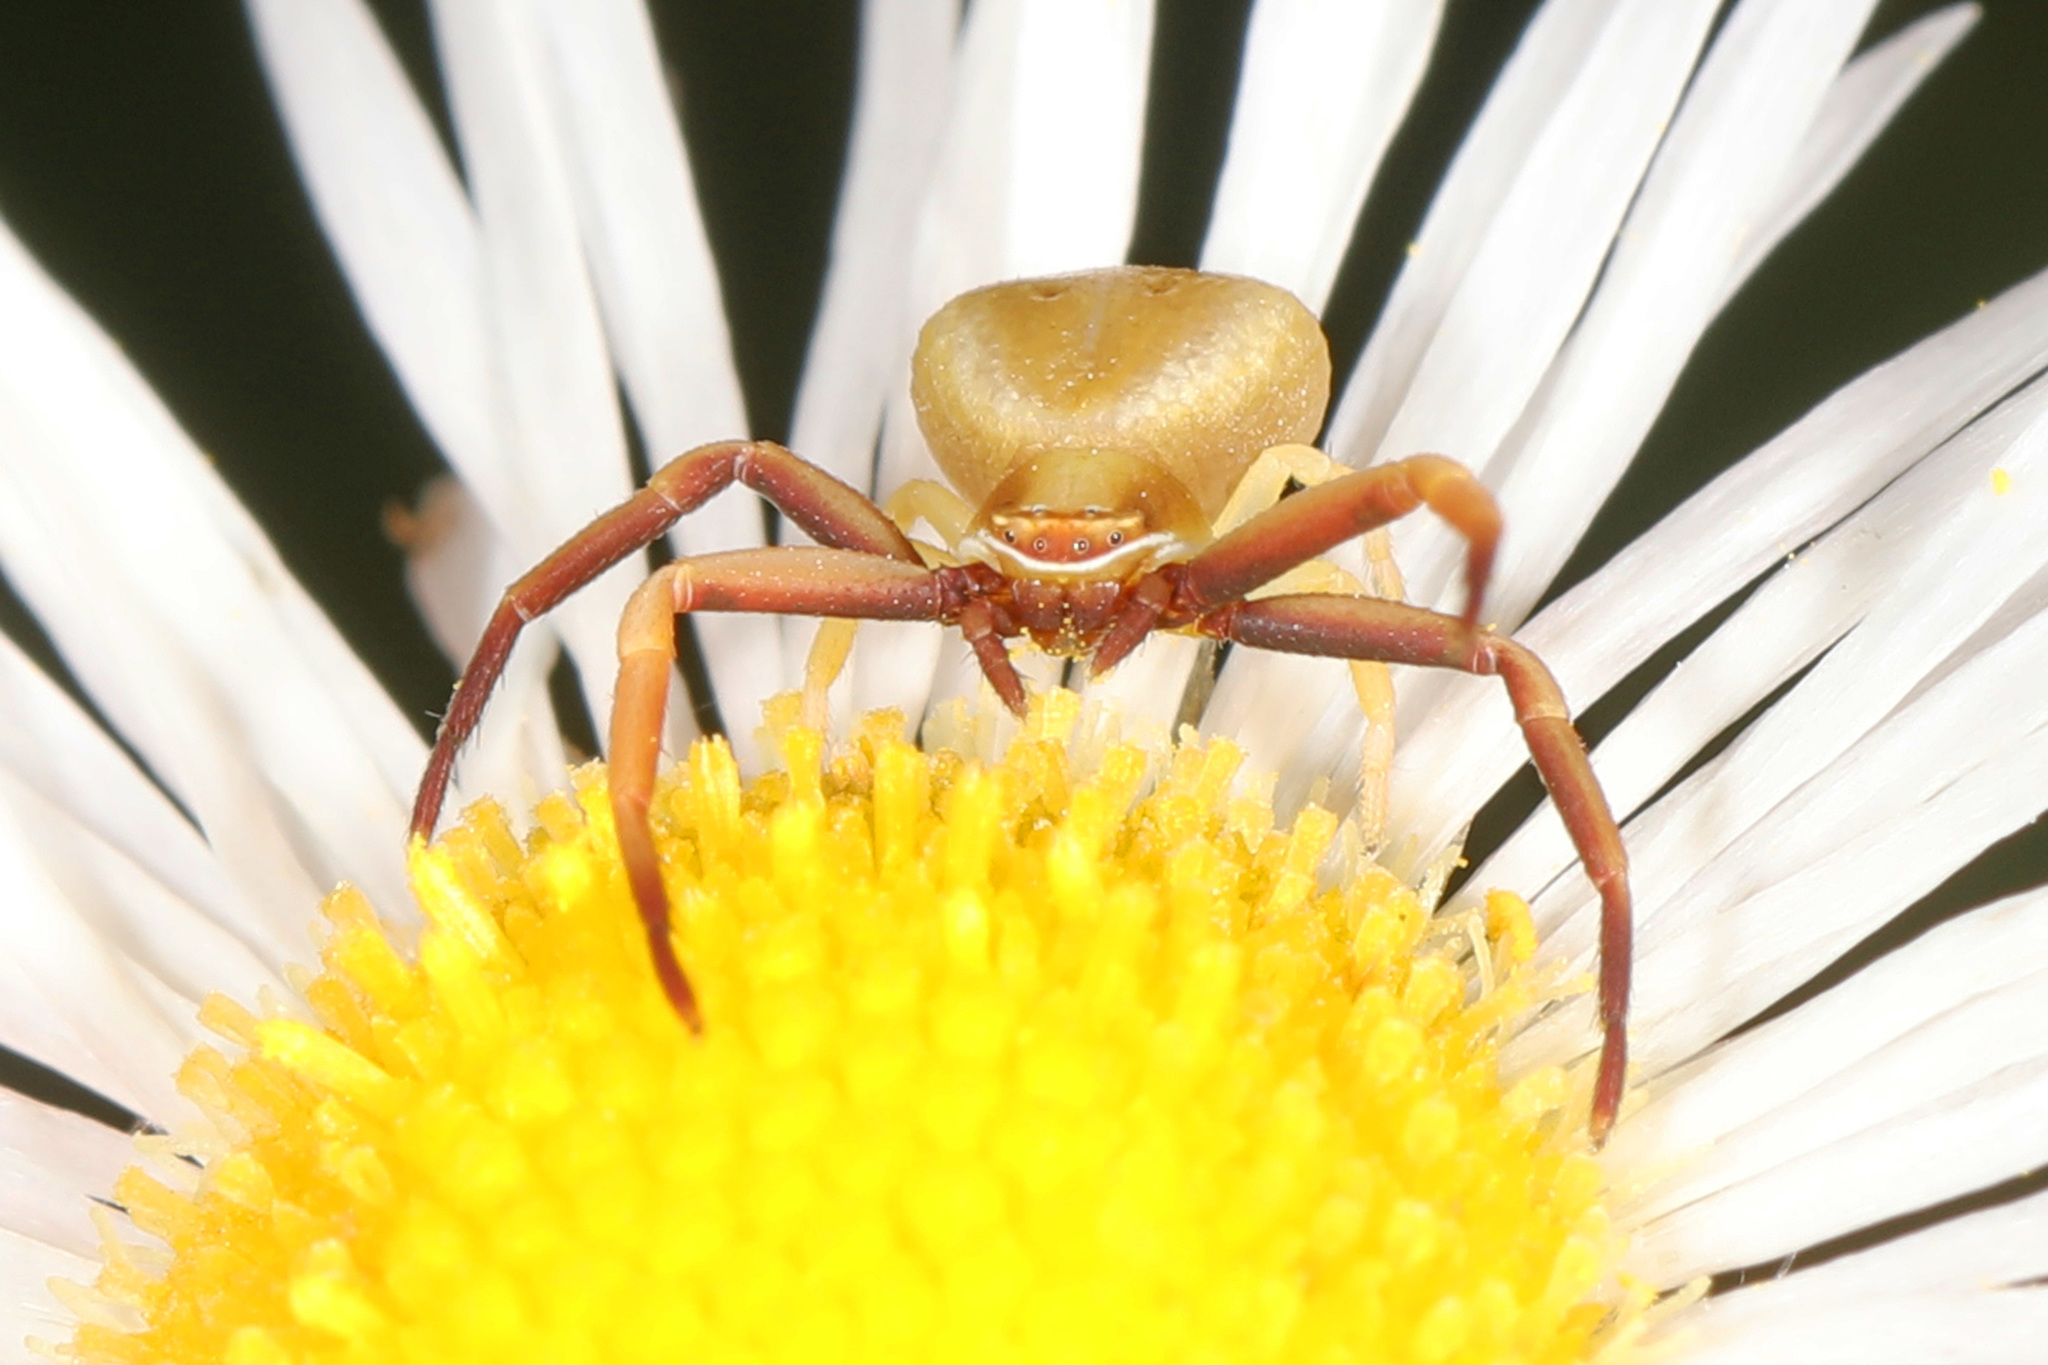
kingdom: Animalia
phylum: Arthropoda
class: Arachnida
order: Araneae
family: Thomisidae
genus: Misumenoides
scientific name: Misumenoides formosipes
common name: White-banded crab spider
